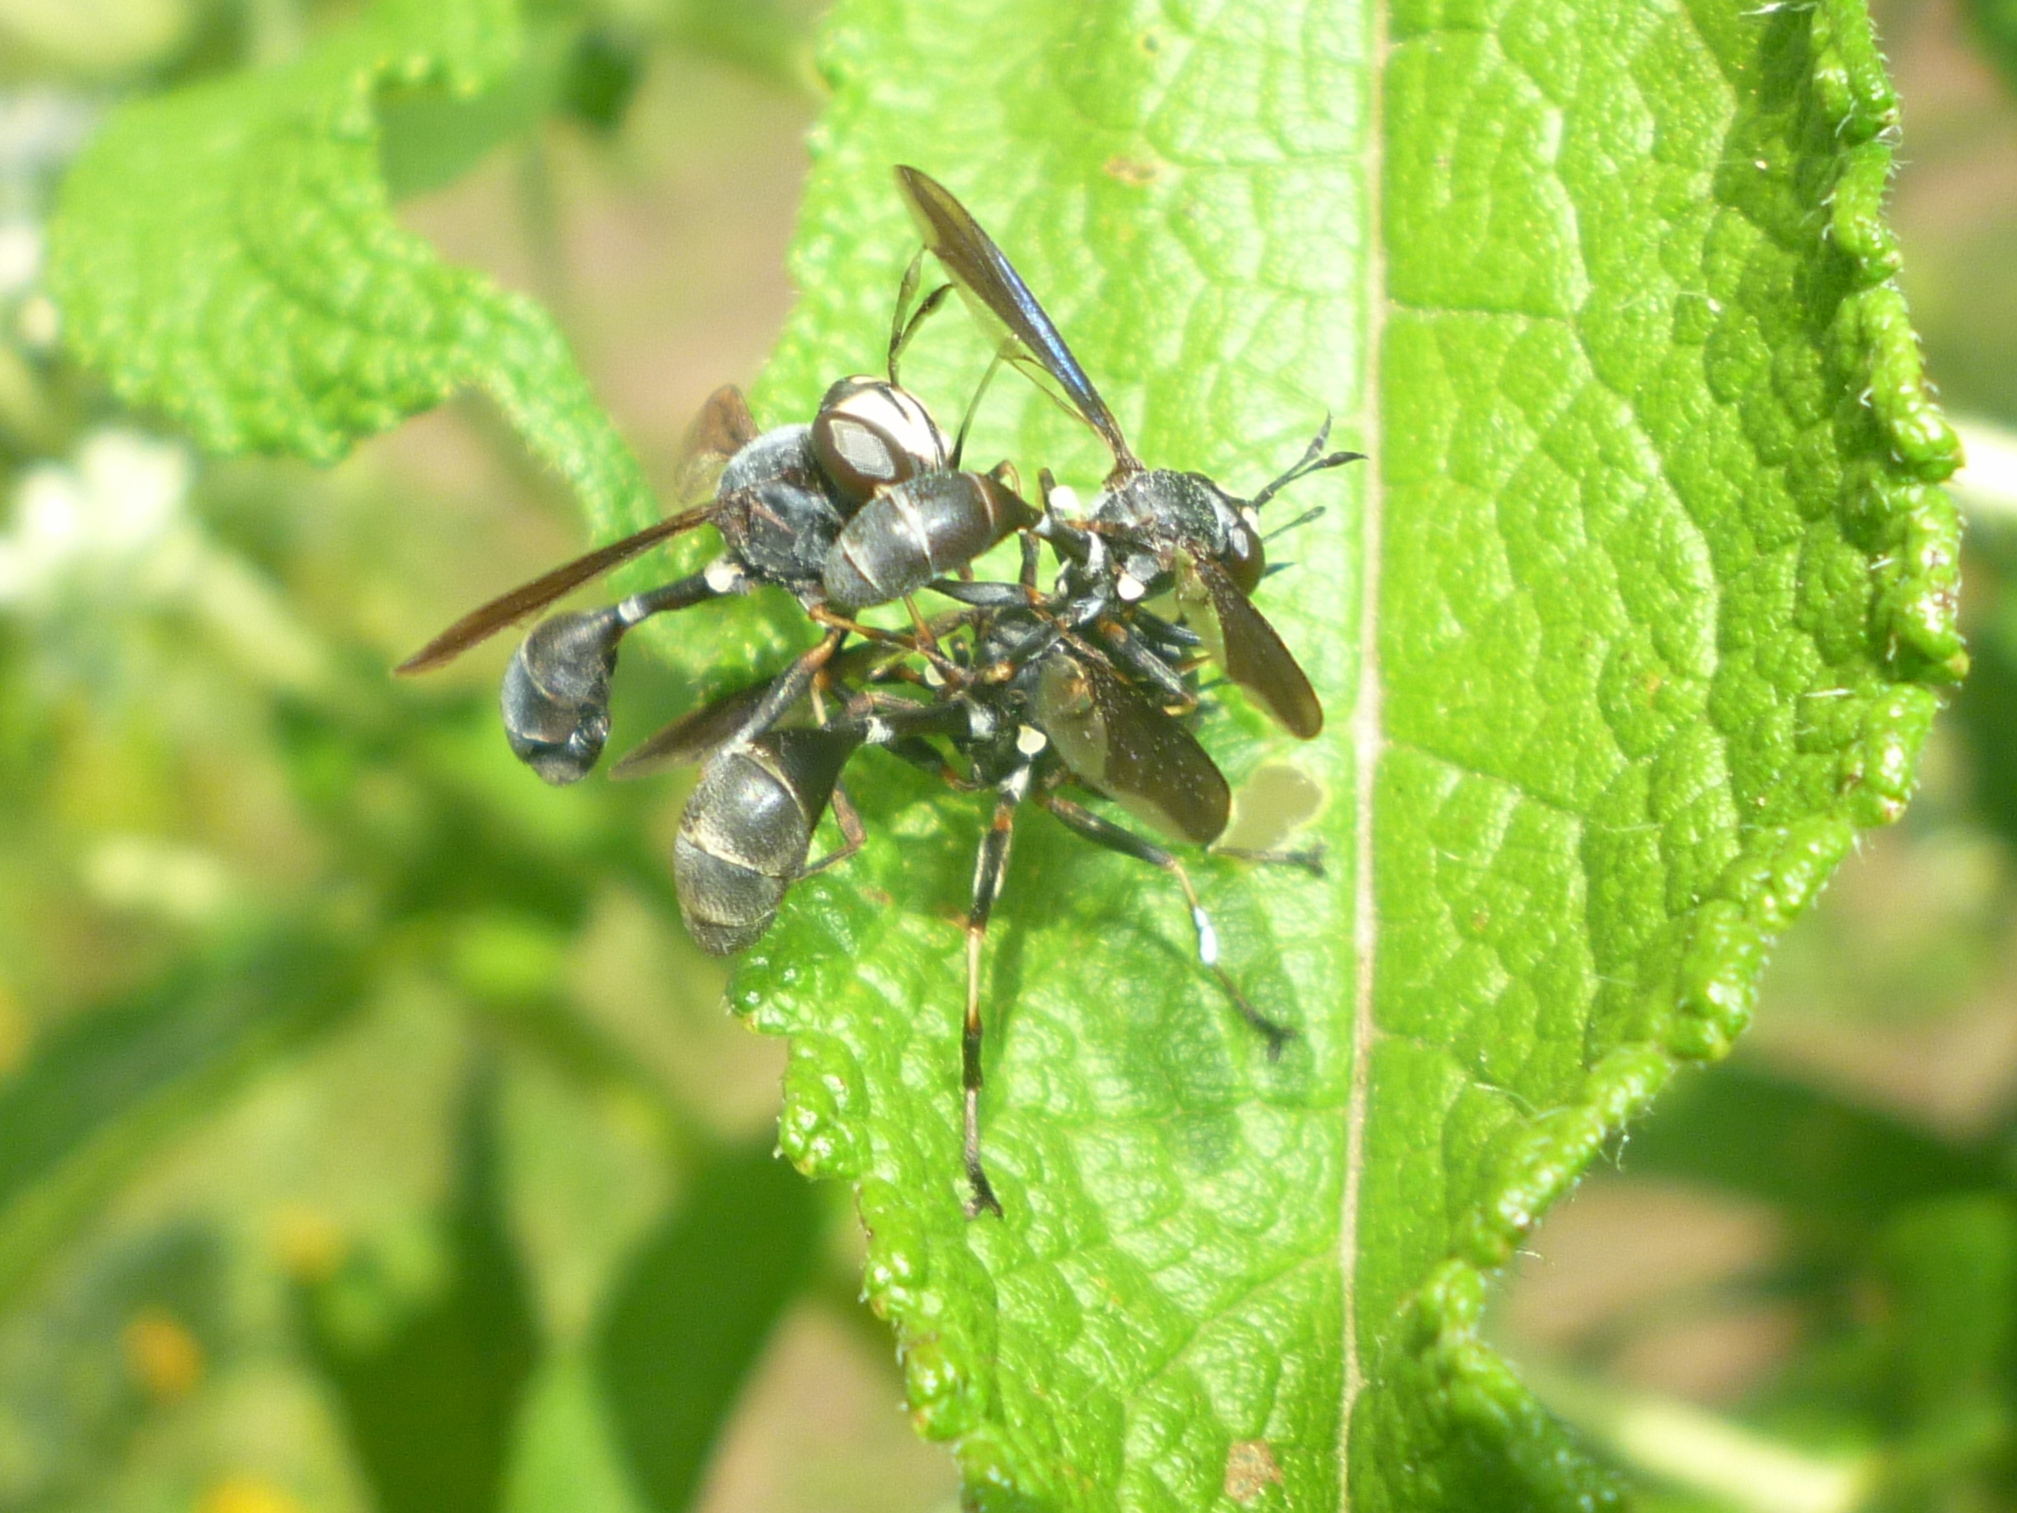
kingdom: Animalia
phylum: Arthropoda
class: Insecta
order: Diptera
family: Conopidae
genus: Physocephala
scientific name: Physocephala tibialis
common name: Common eastern physocephala
